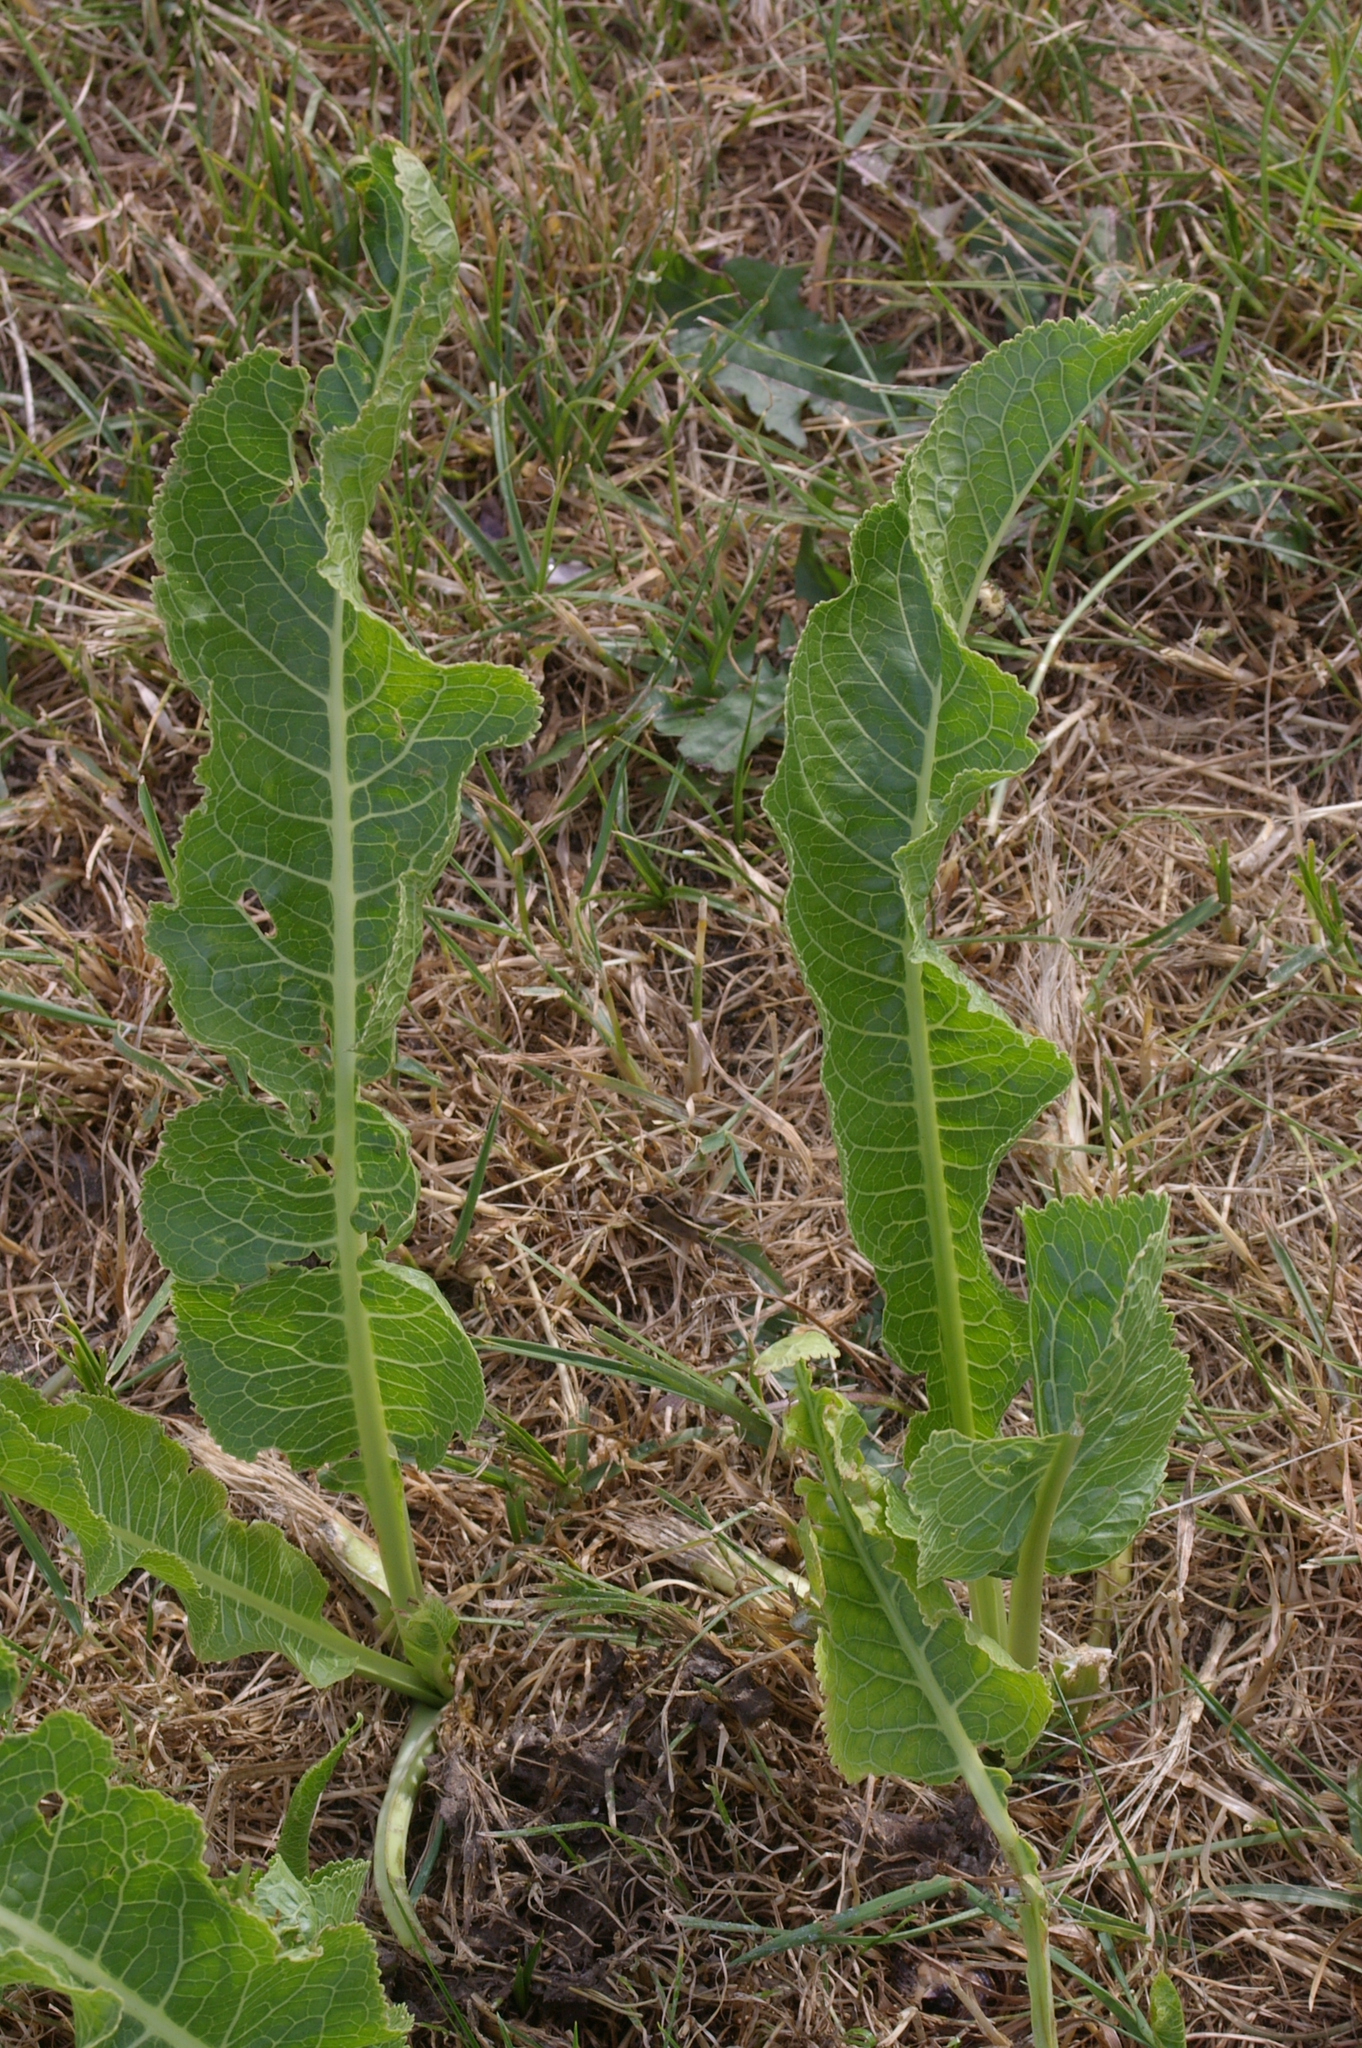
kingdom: Plantae
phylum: Tracheophyta
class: Magnoliopsida
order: Brassicales
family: Brassicaceae
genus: Armoracia
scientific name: Armoracia rusticana
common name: Horseradish
